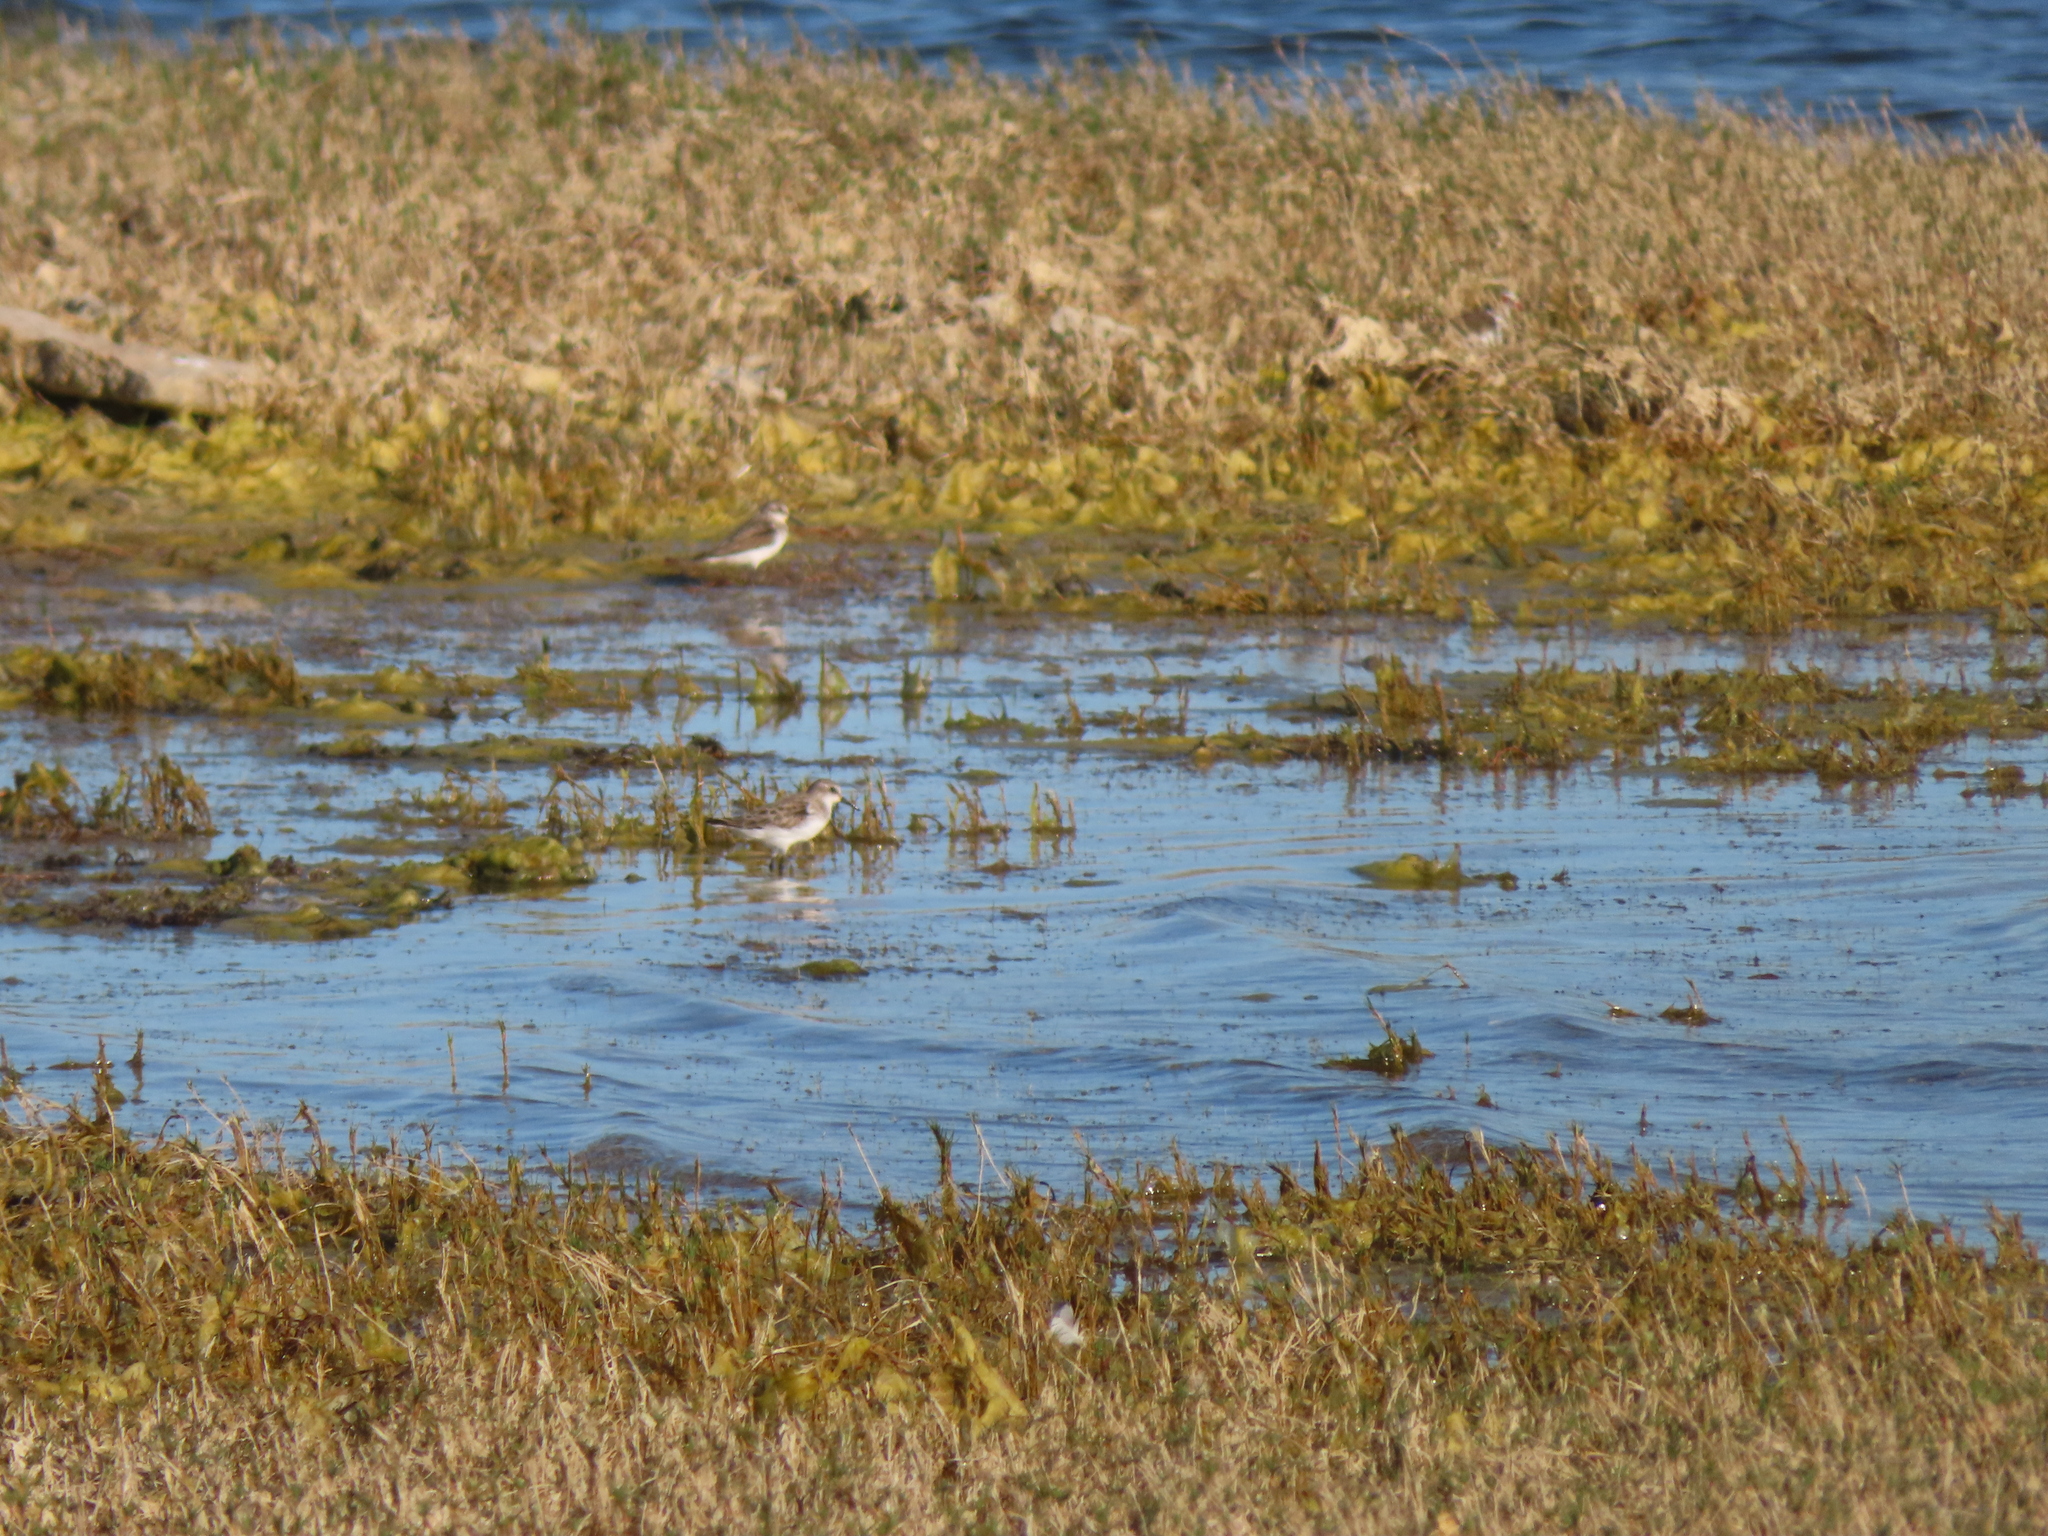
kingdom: Animalia
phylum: Chordata
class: Aves
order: Charadriiformes
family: Scolopacidae
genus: Calidris
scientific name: Calidris minuta
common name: Little stint
